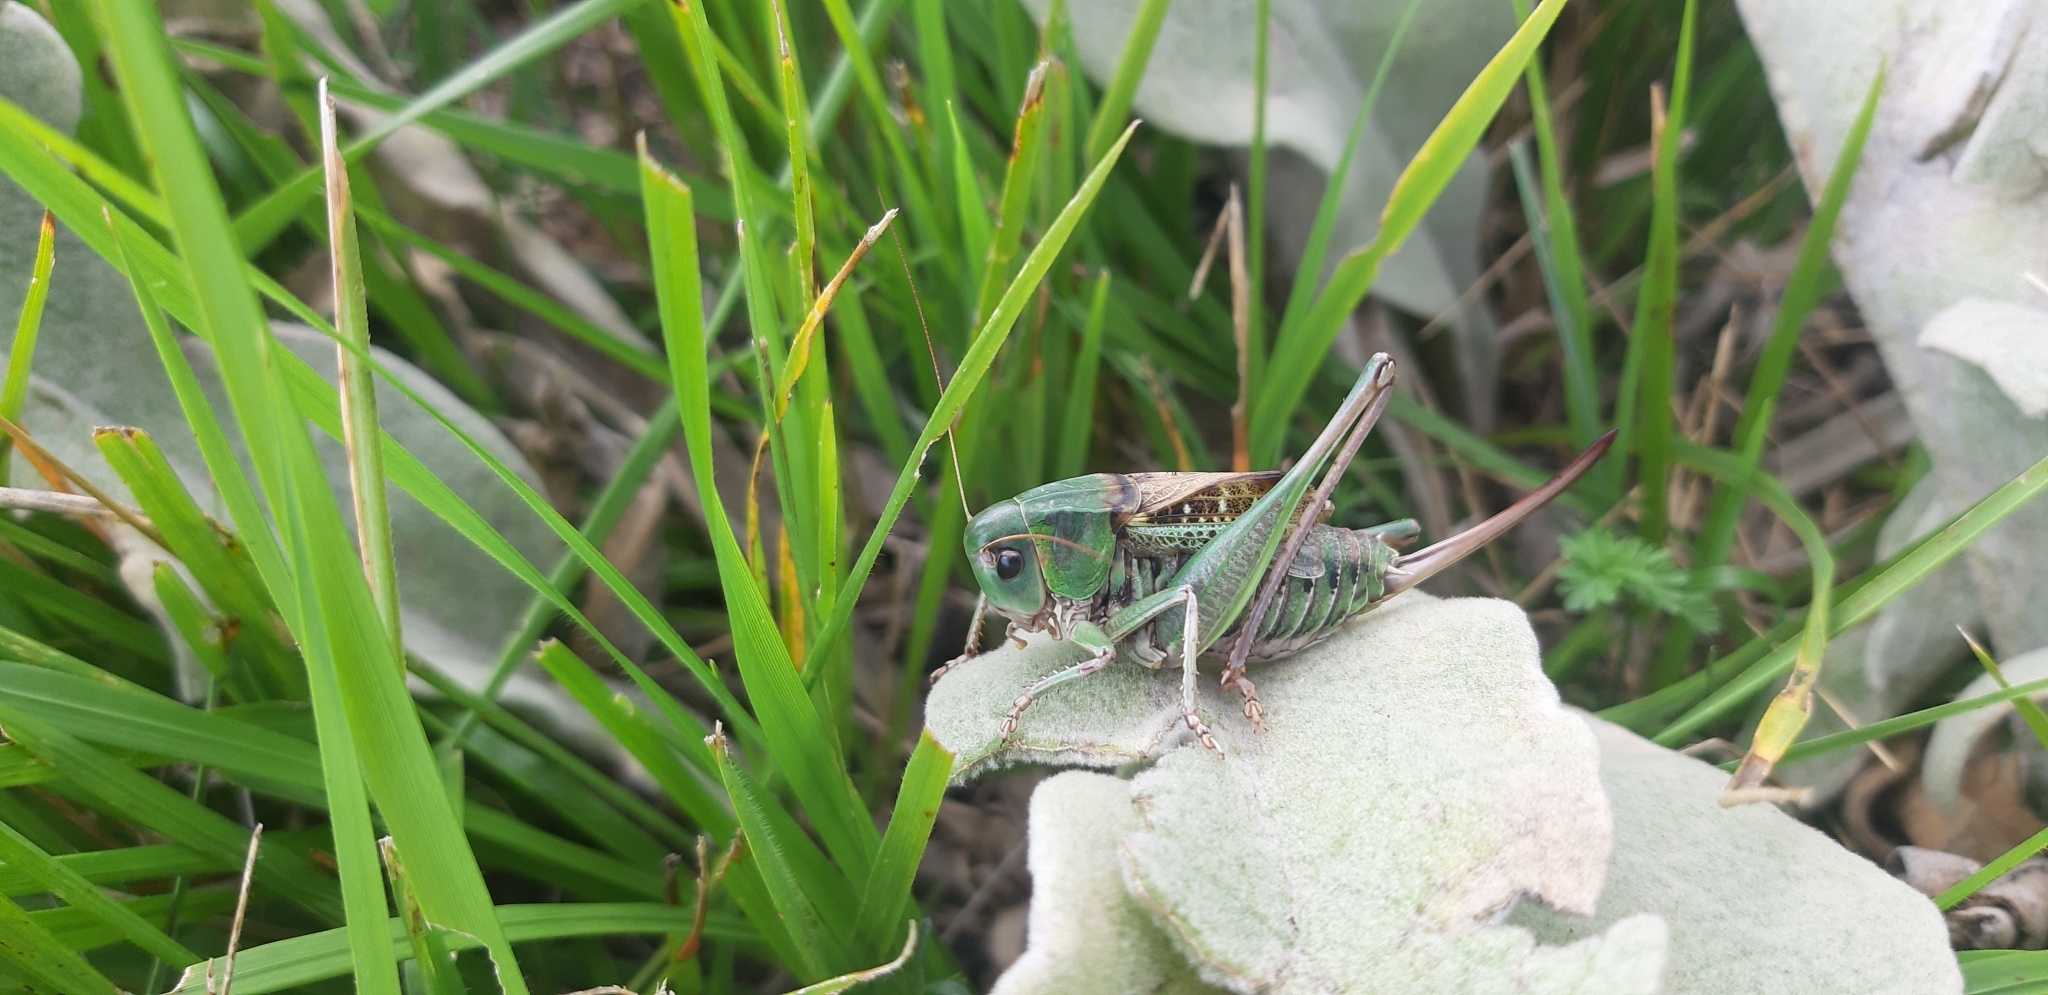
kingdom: Animalia
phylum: Arthropoda
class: Insecta
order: Orthoptera
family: Tettigoniidae
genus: Decticus
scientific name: Decticus aprutianus
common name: Abruzzo wart-biter
